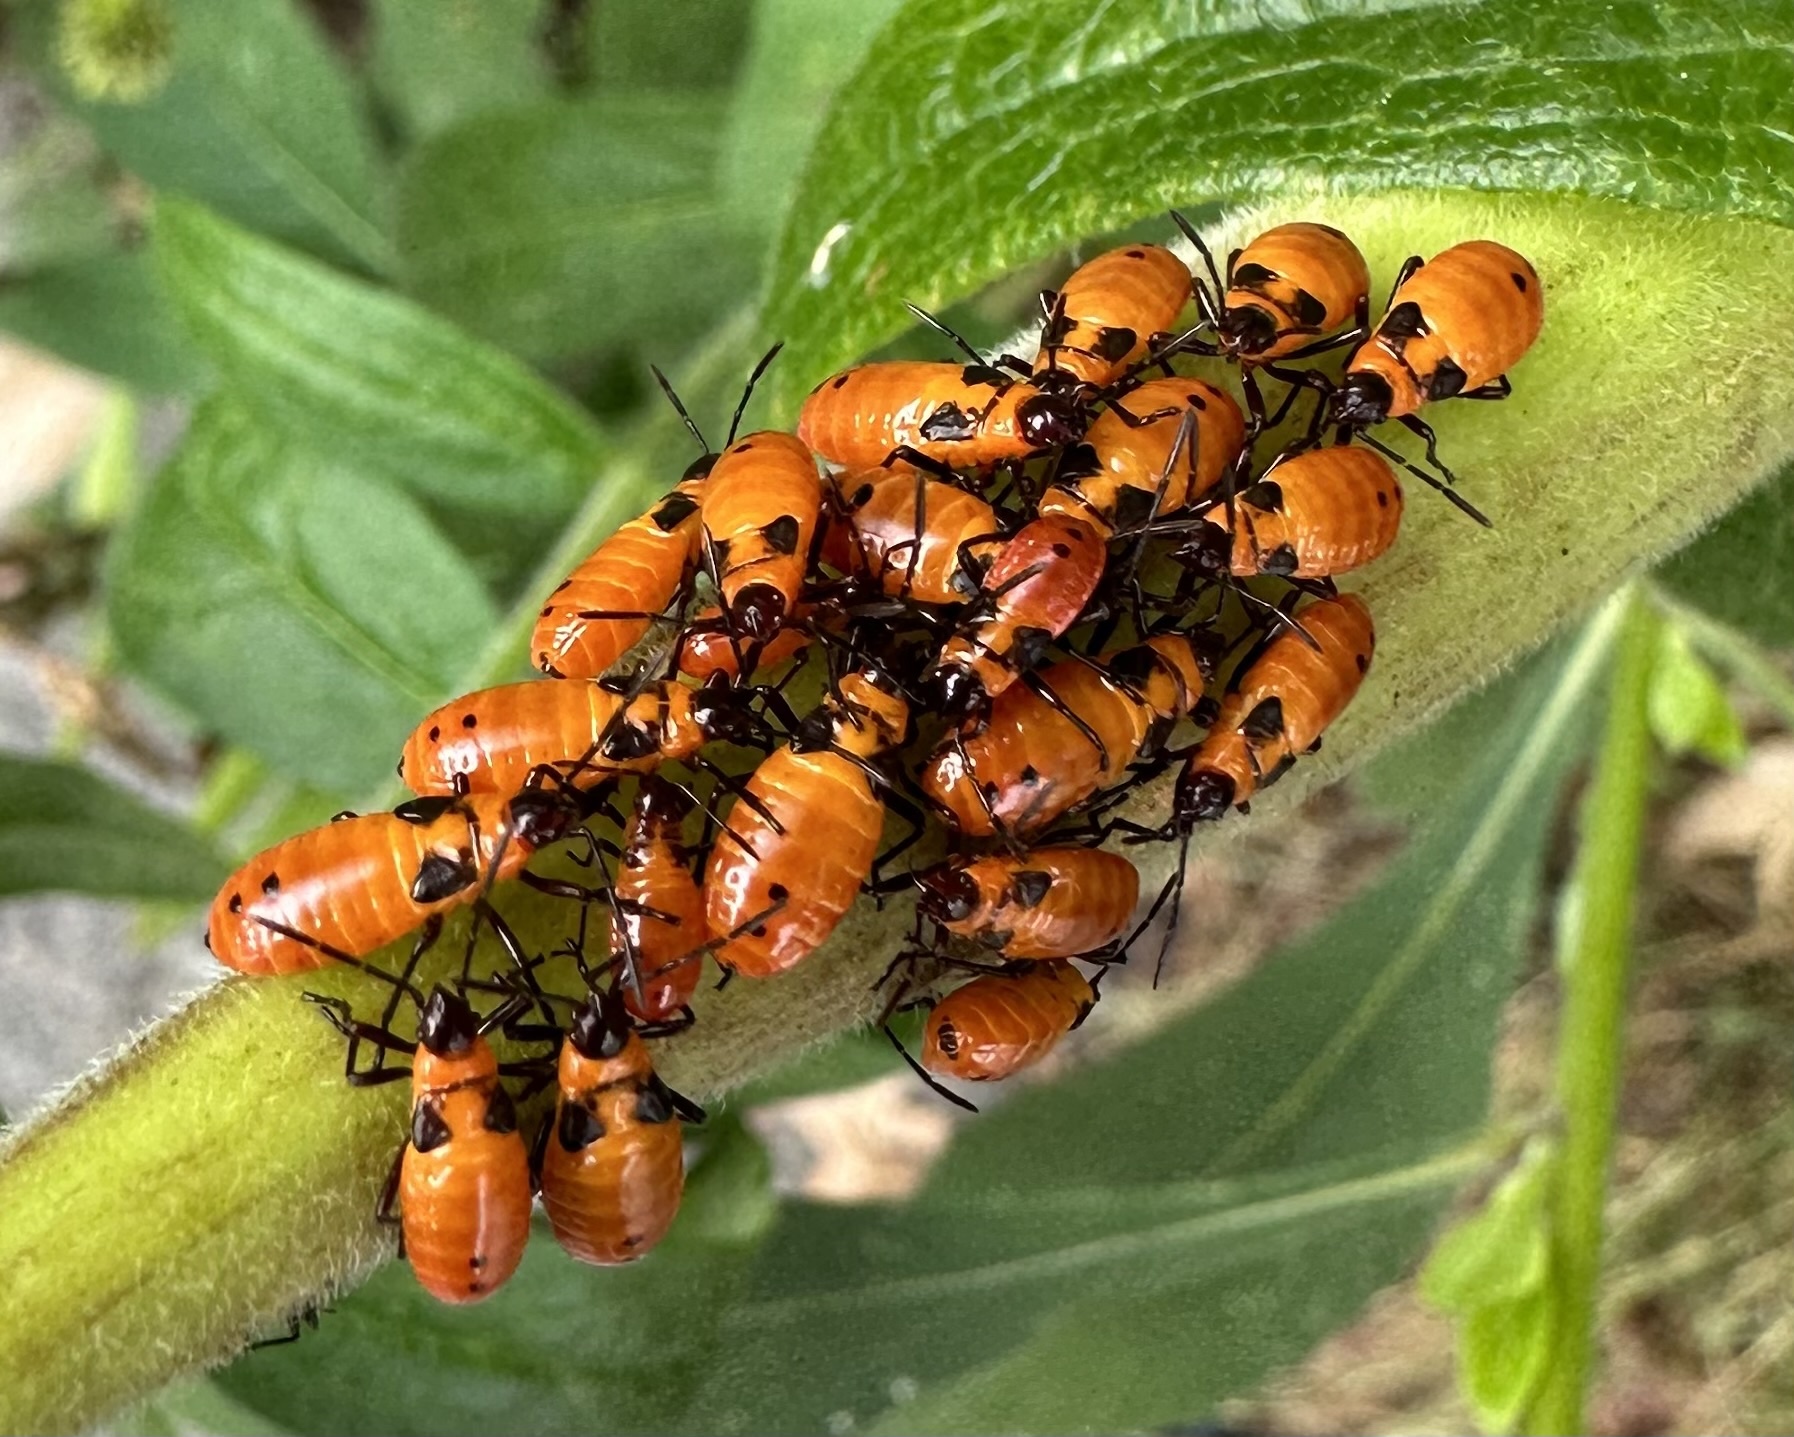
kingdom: Animalia
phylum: Arthropoda
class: Insecta
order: Hemiptera
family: Lygaeidae
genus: Oncopeltus
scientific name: Oncopeltus fasciatus
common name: Large milkweed bug
